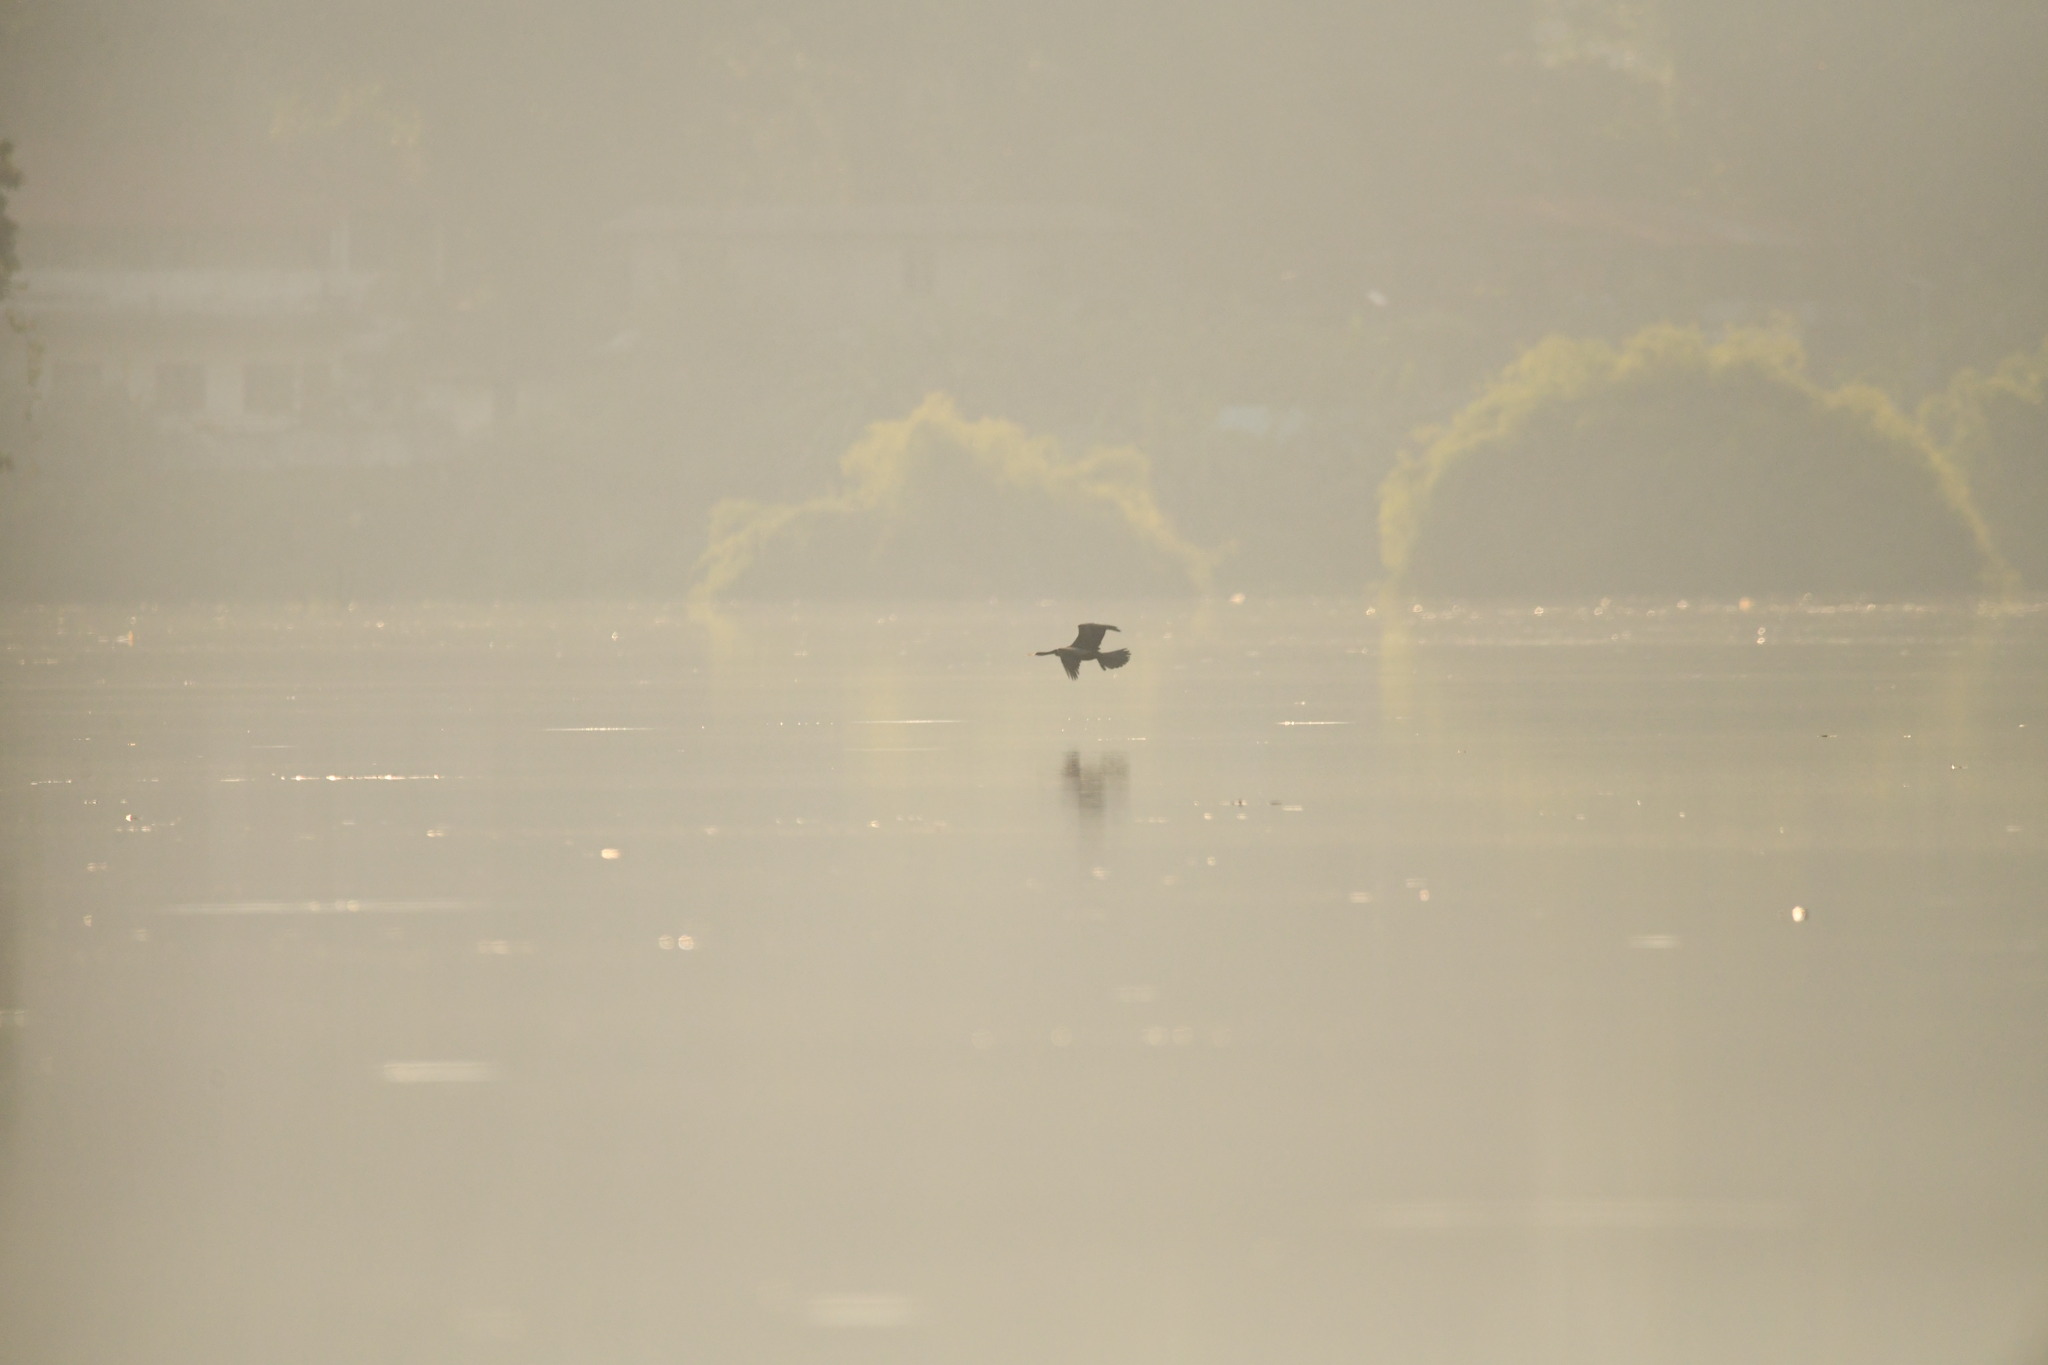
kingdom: Animalia
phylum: Chordata
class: Aves
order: Suliformes
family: Anhingidae
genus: Anhinga
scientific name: Anhinga melanogaster
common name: Oriental darter
